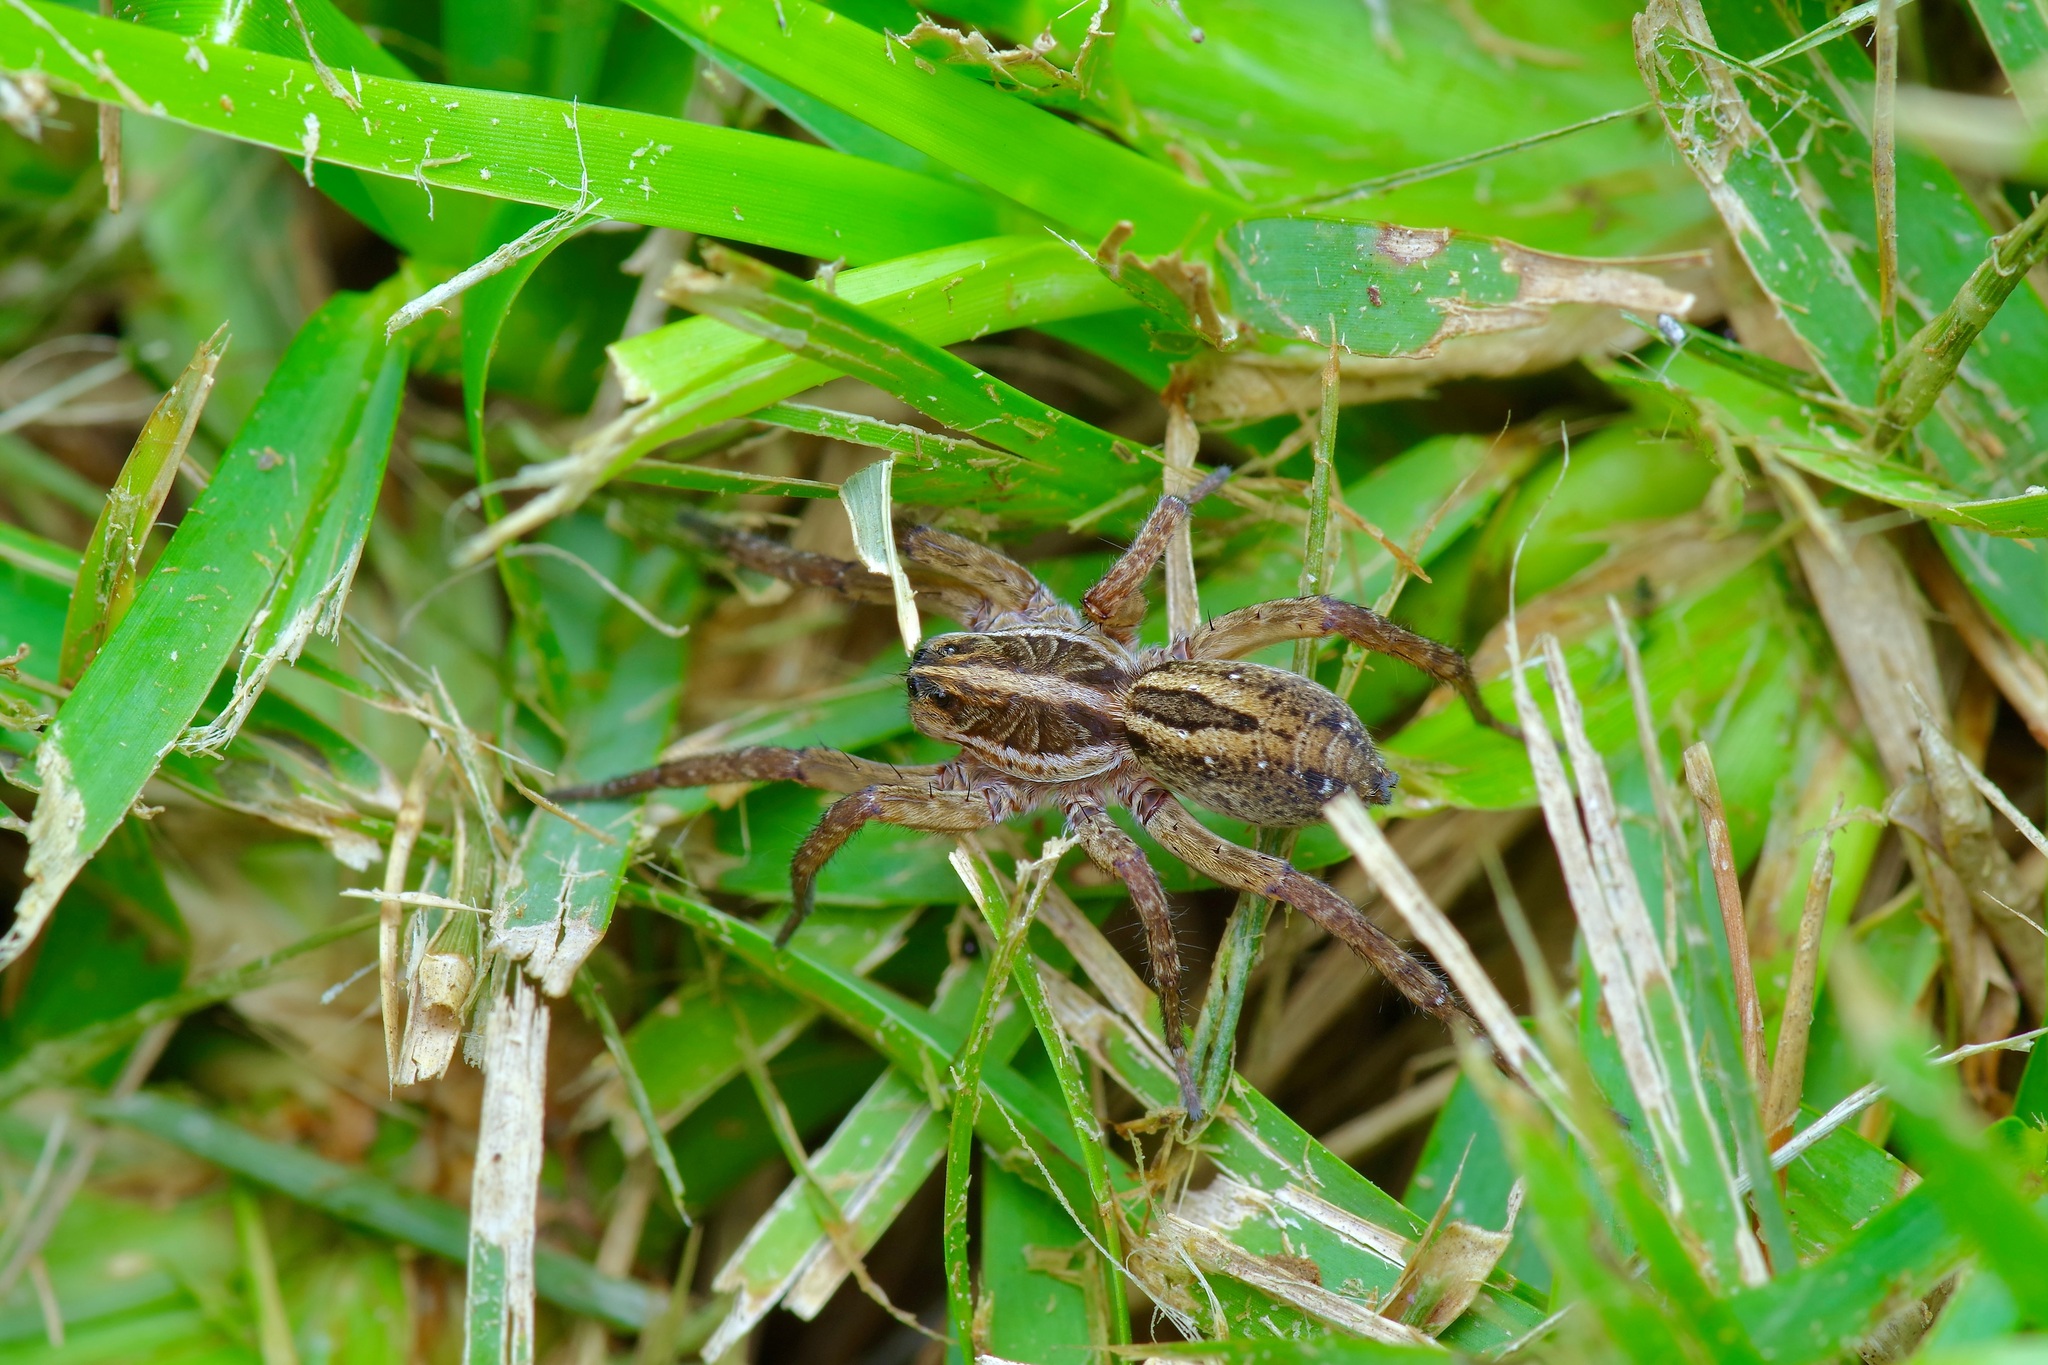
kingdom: Animalia
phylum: Arthropoda
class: Arachnida
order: Araneae
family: Lycosidae
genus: Tigrosa
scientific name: Tigrosa annexa
